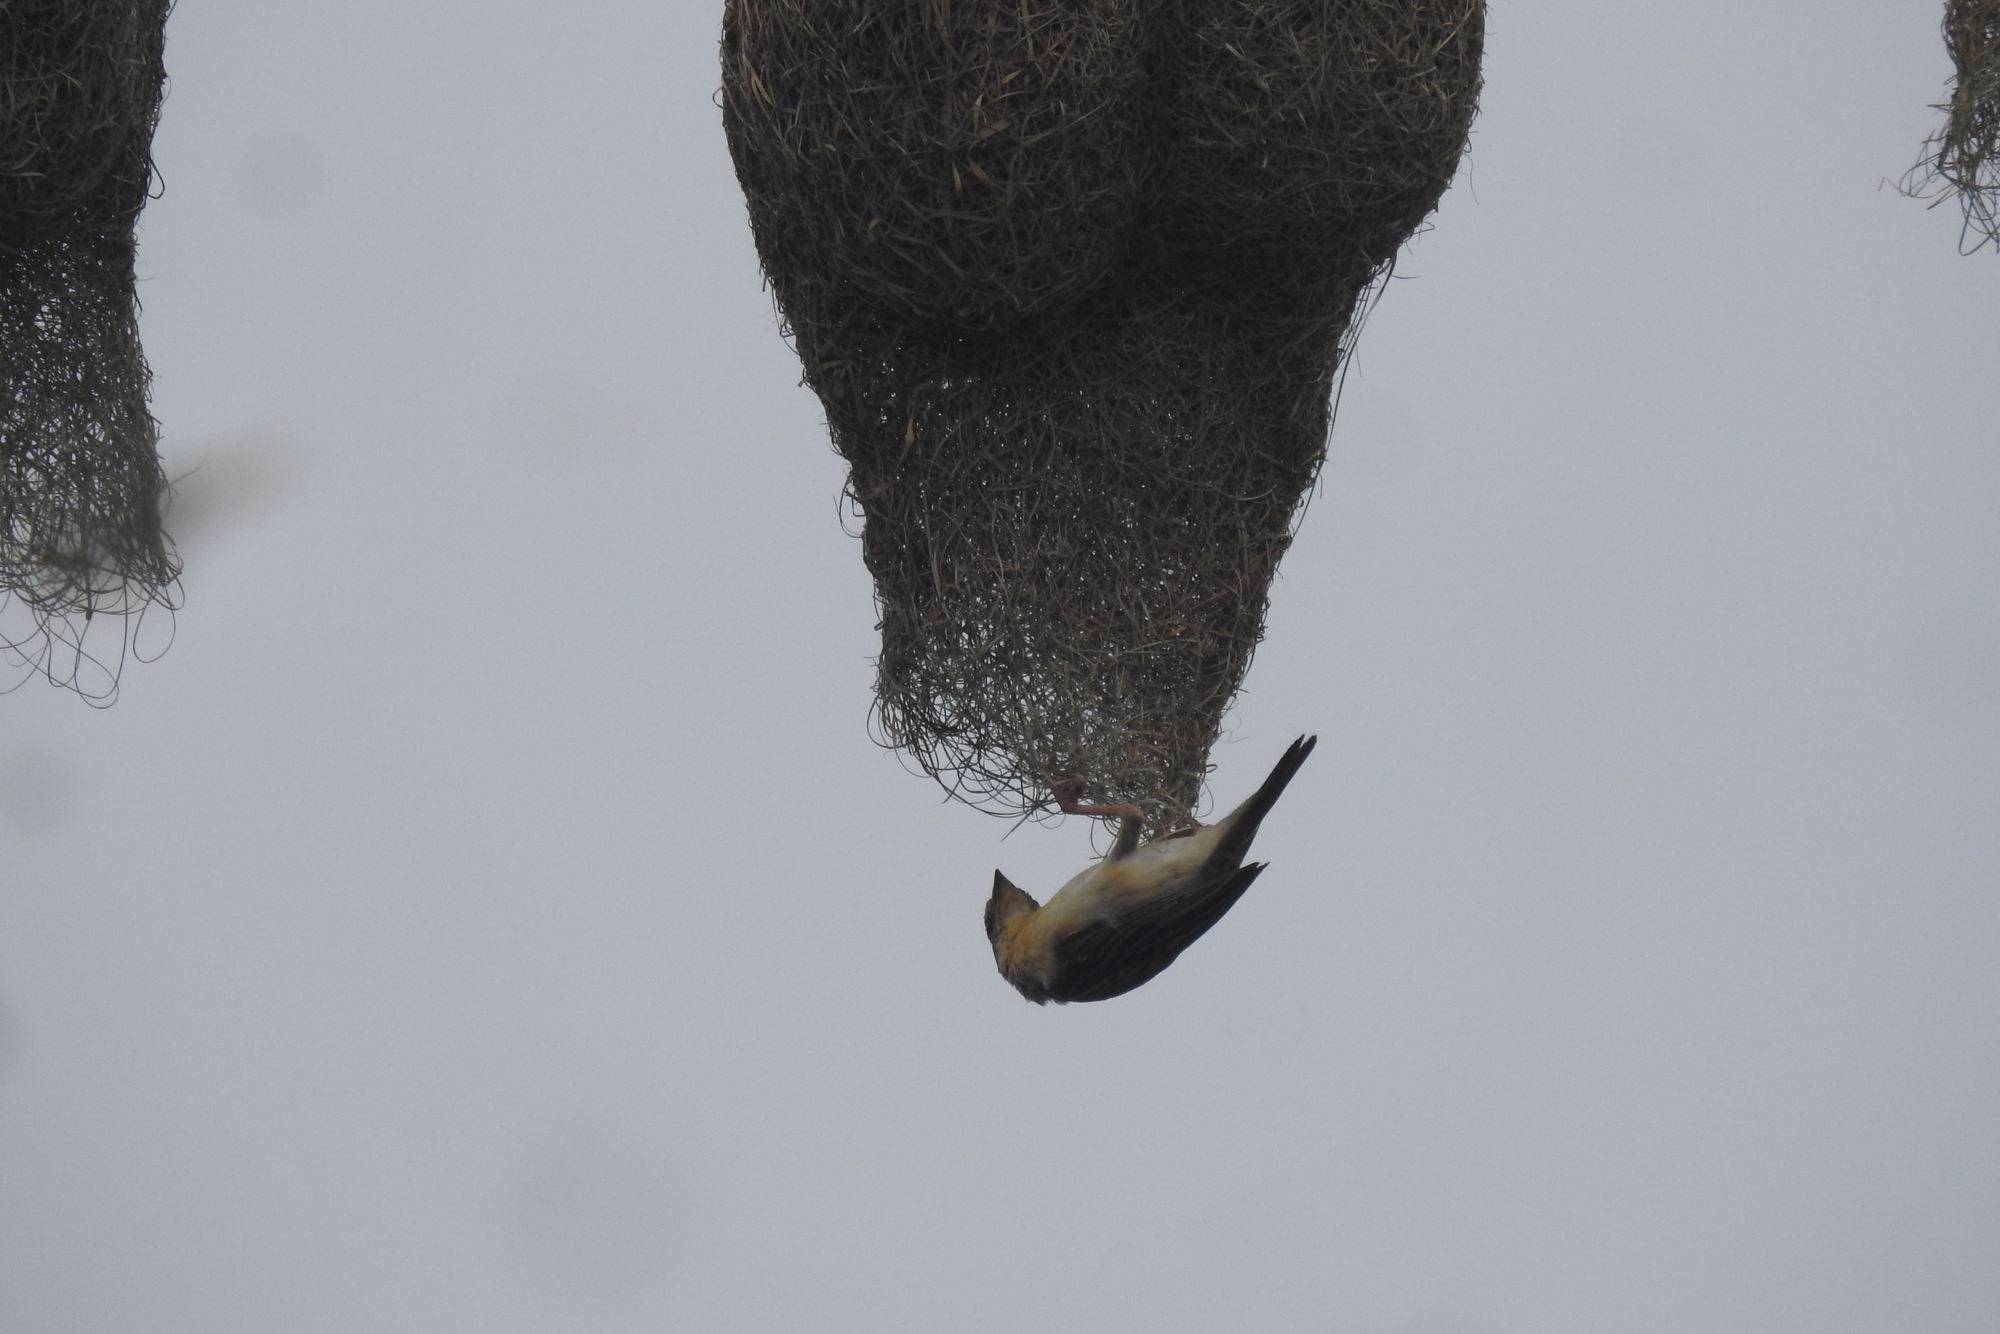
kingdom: Animalia
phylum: Chordata
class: Aves
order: Passeriformes
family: Ploceidae
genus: Ploceus
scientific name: Ploceus philippinus
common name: Baya weaver
